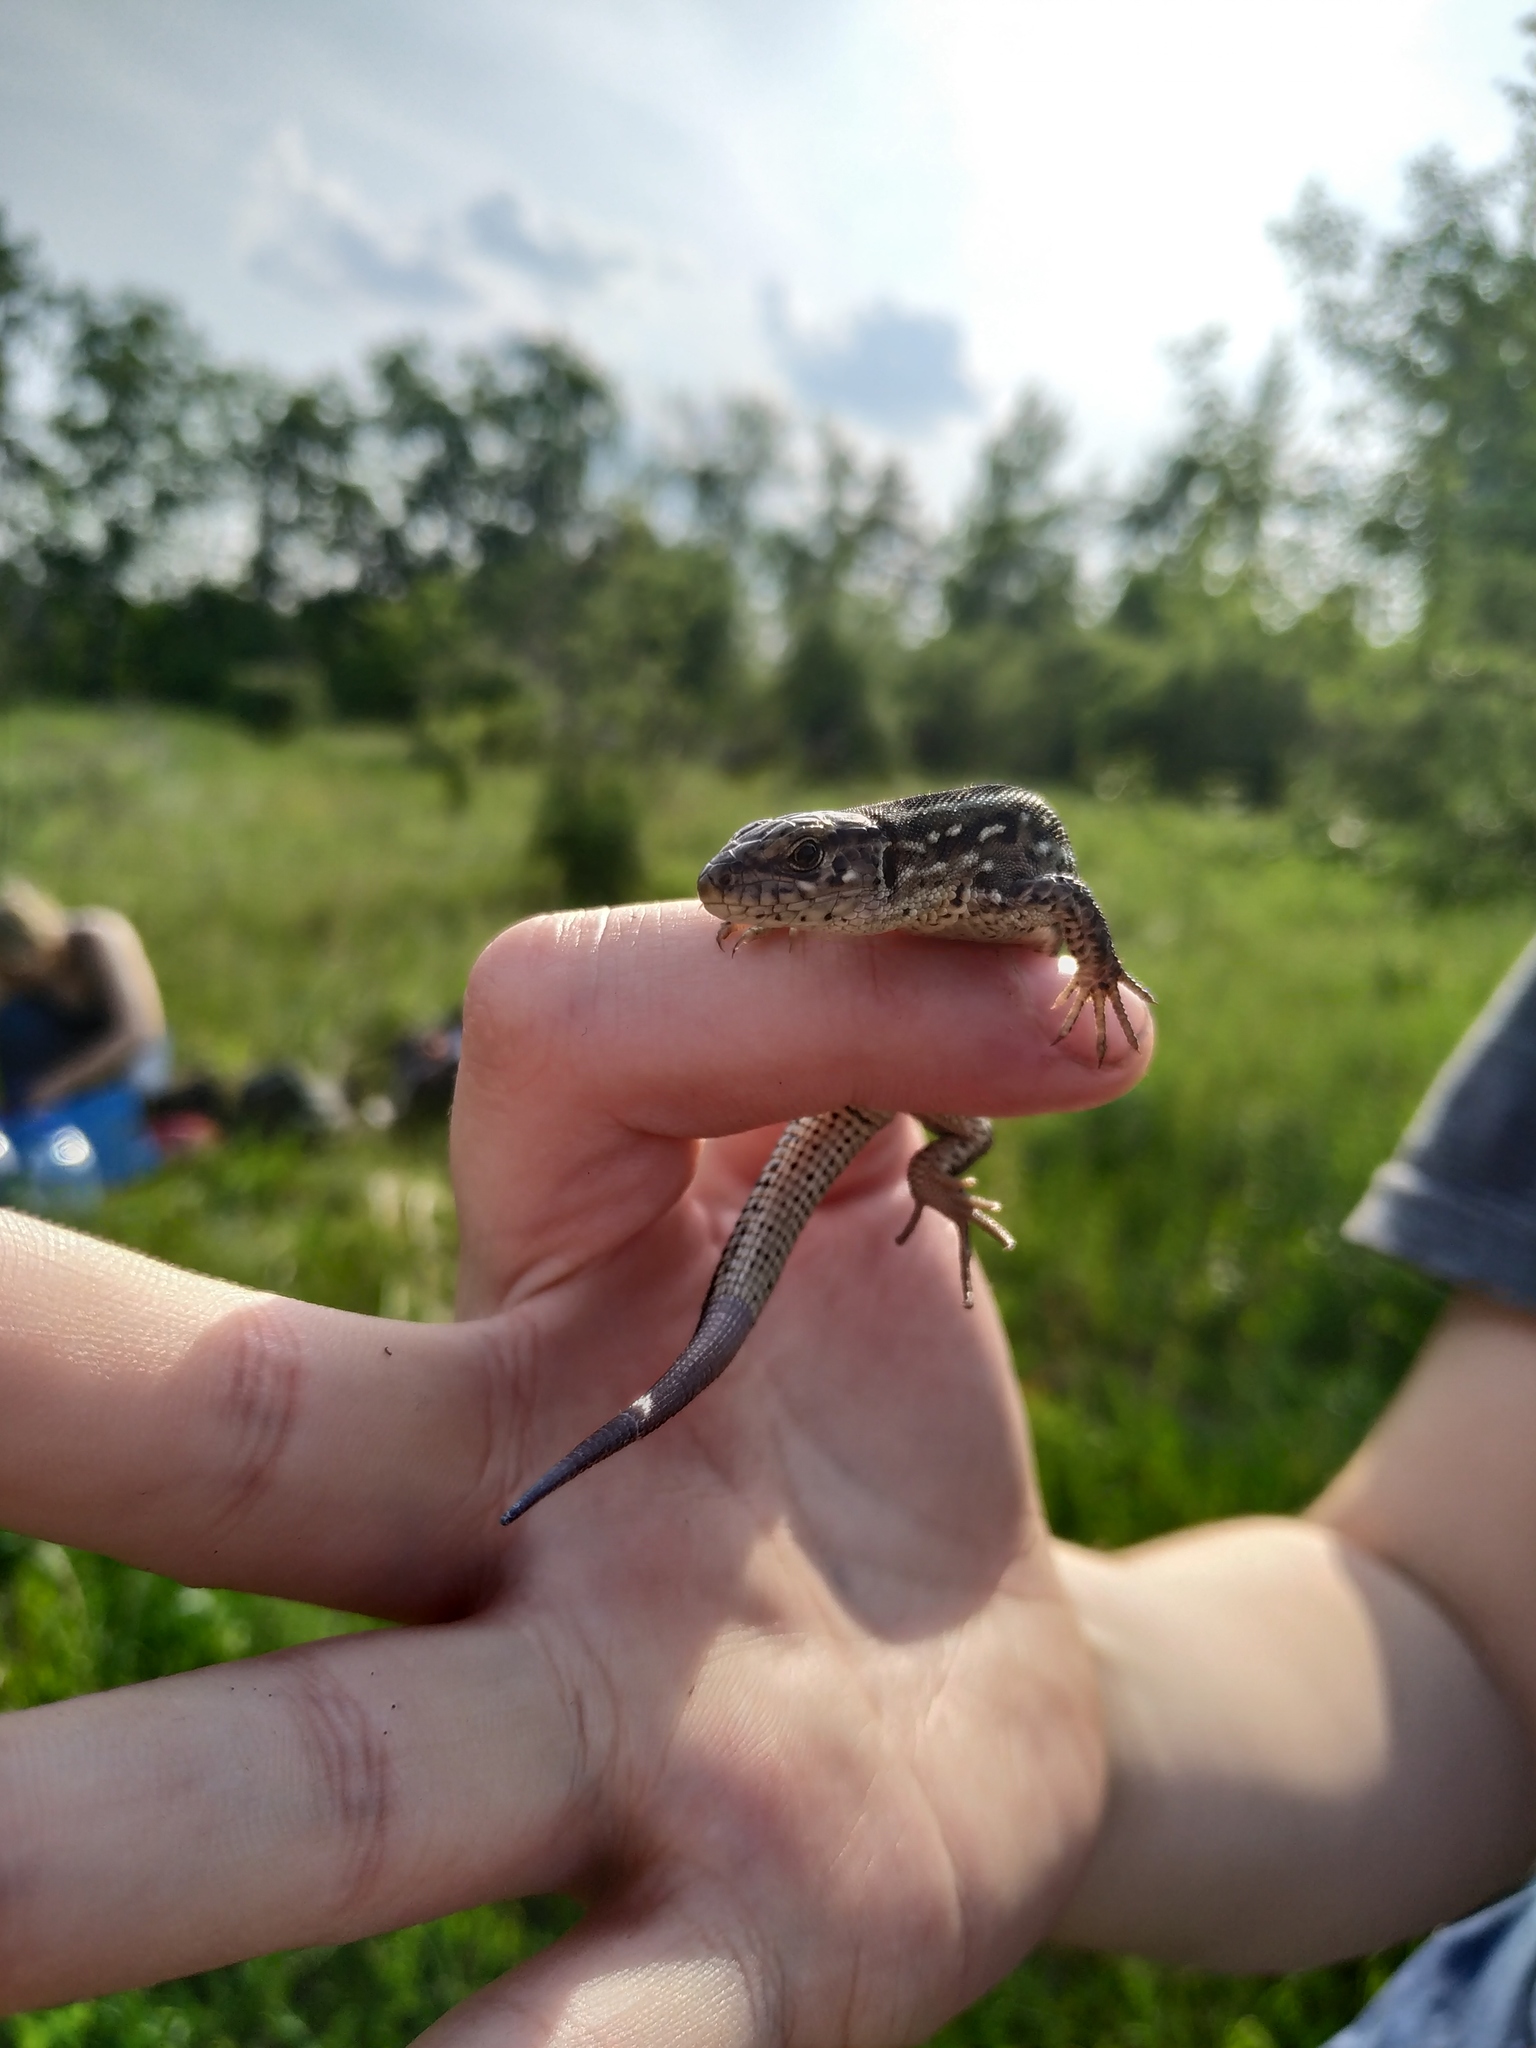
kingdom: Animalia
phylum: Chordata
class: Squamata
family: Lacertidae
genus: Lacerta
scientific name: Lacerta agilis
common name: Sand lizard
